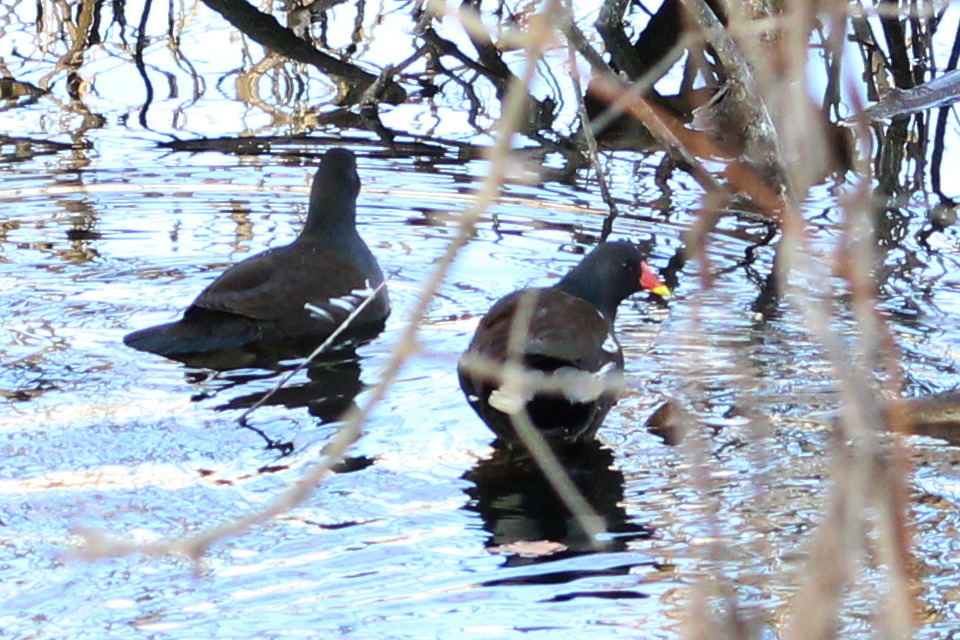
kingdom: Animalia
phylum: Chordata
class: Aves
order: Gruiformes
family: Rallidae
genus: Gallinula
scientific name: Gallinula chloropus
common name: Common moorhen
